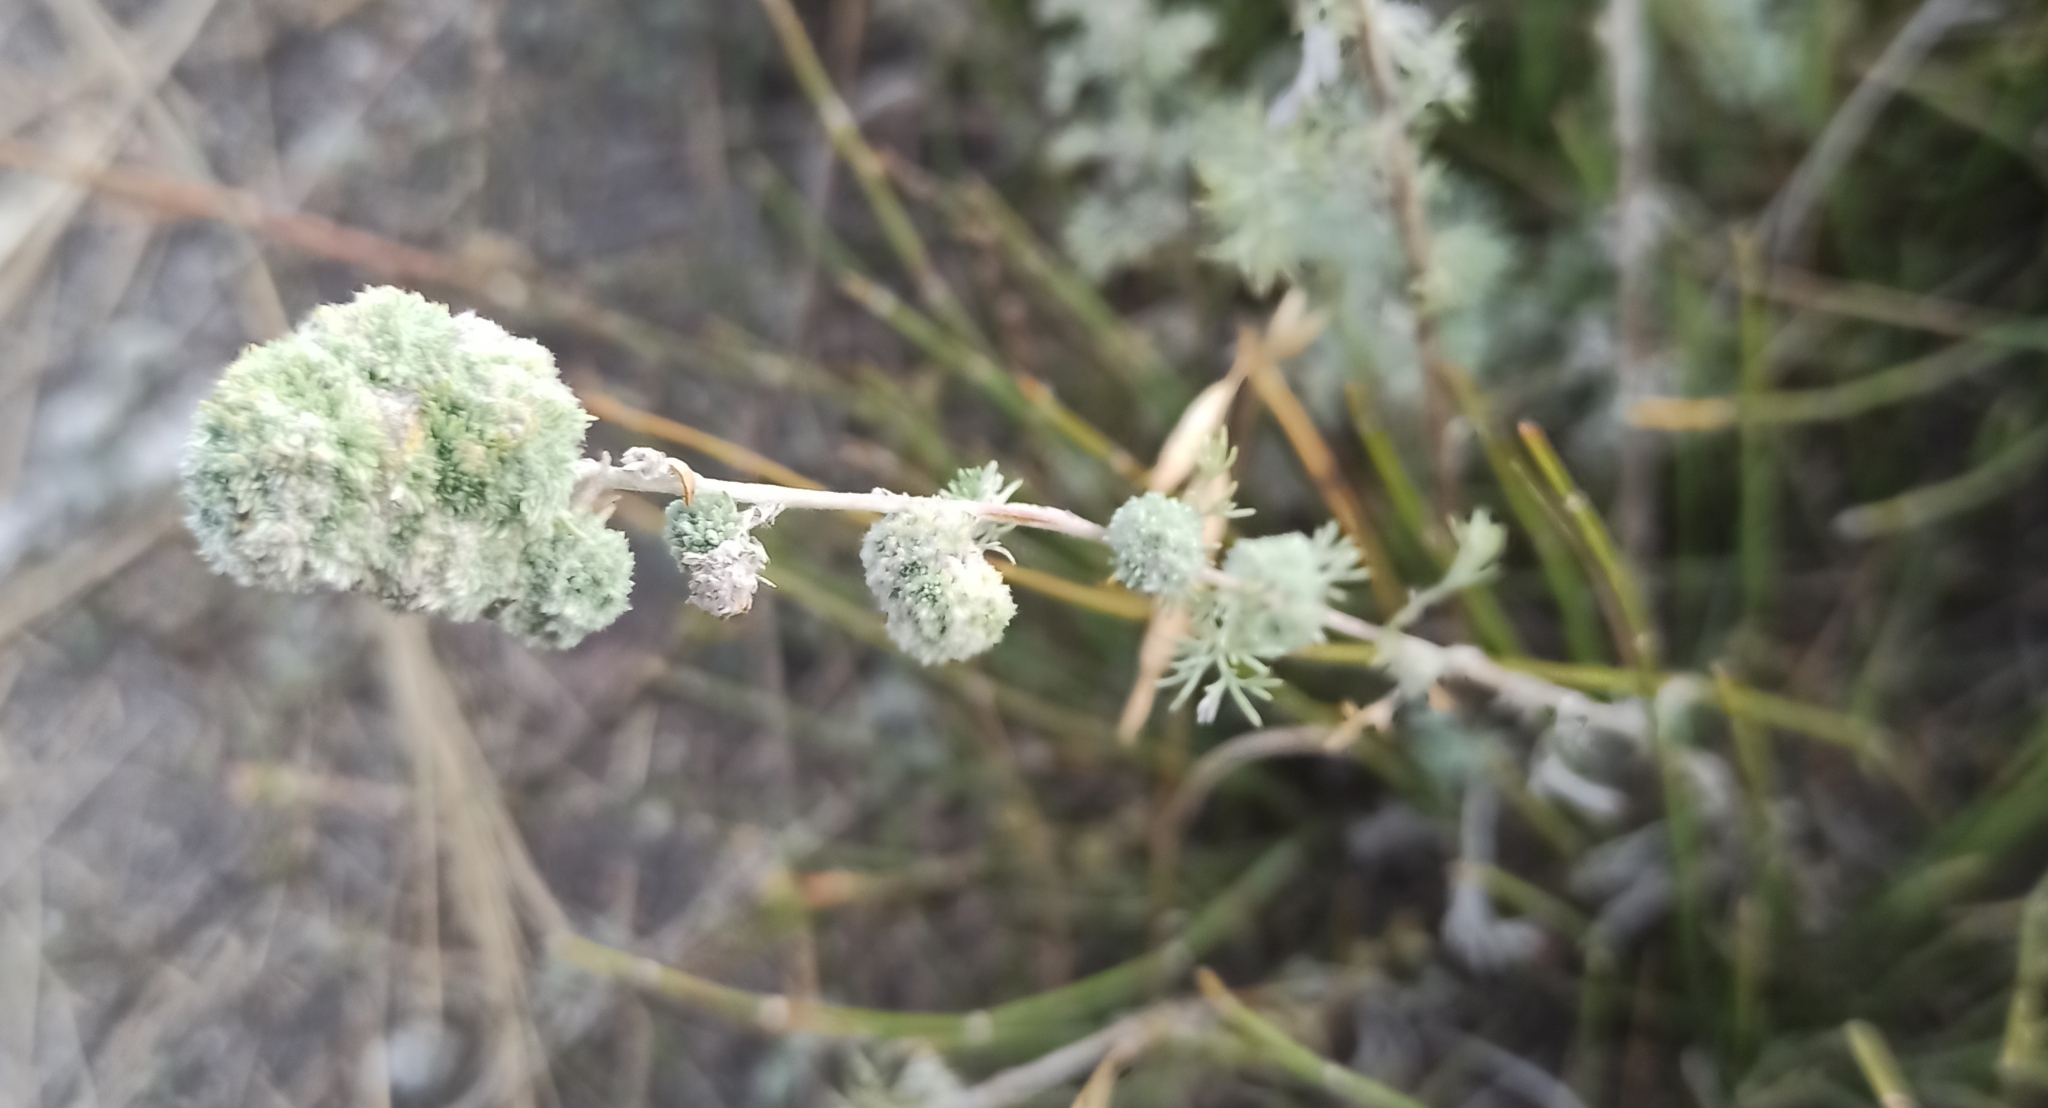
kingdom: Plantae
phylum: Tracheophyta
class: Magnoliopsida
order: Asterales
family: Asteraceae
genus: Artemisia
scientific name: Artemisia austriaca
